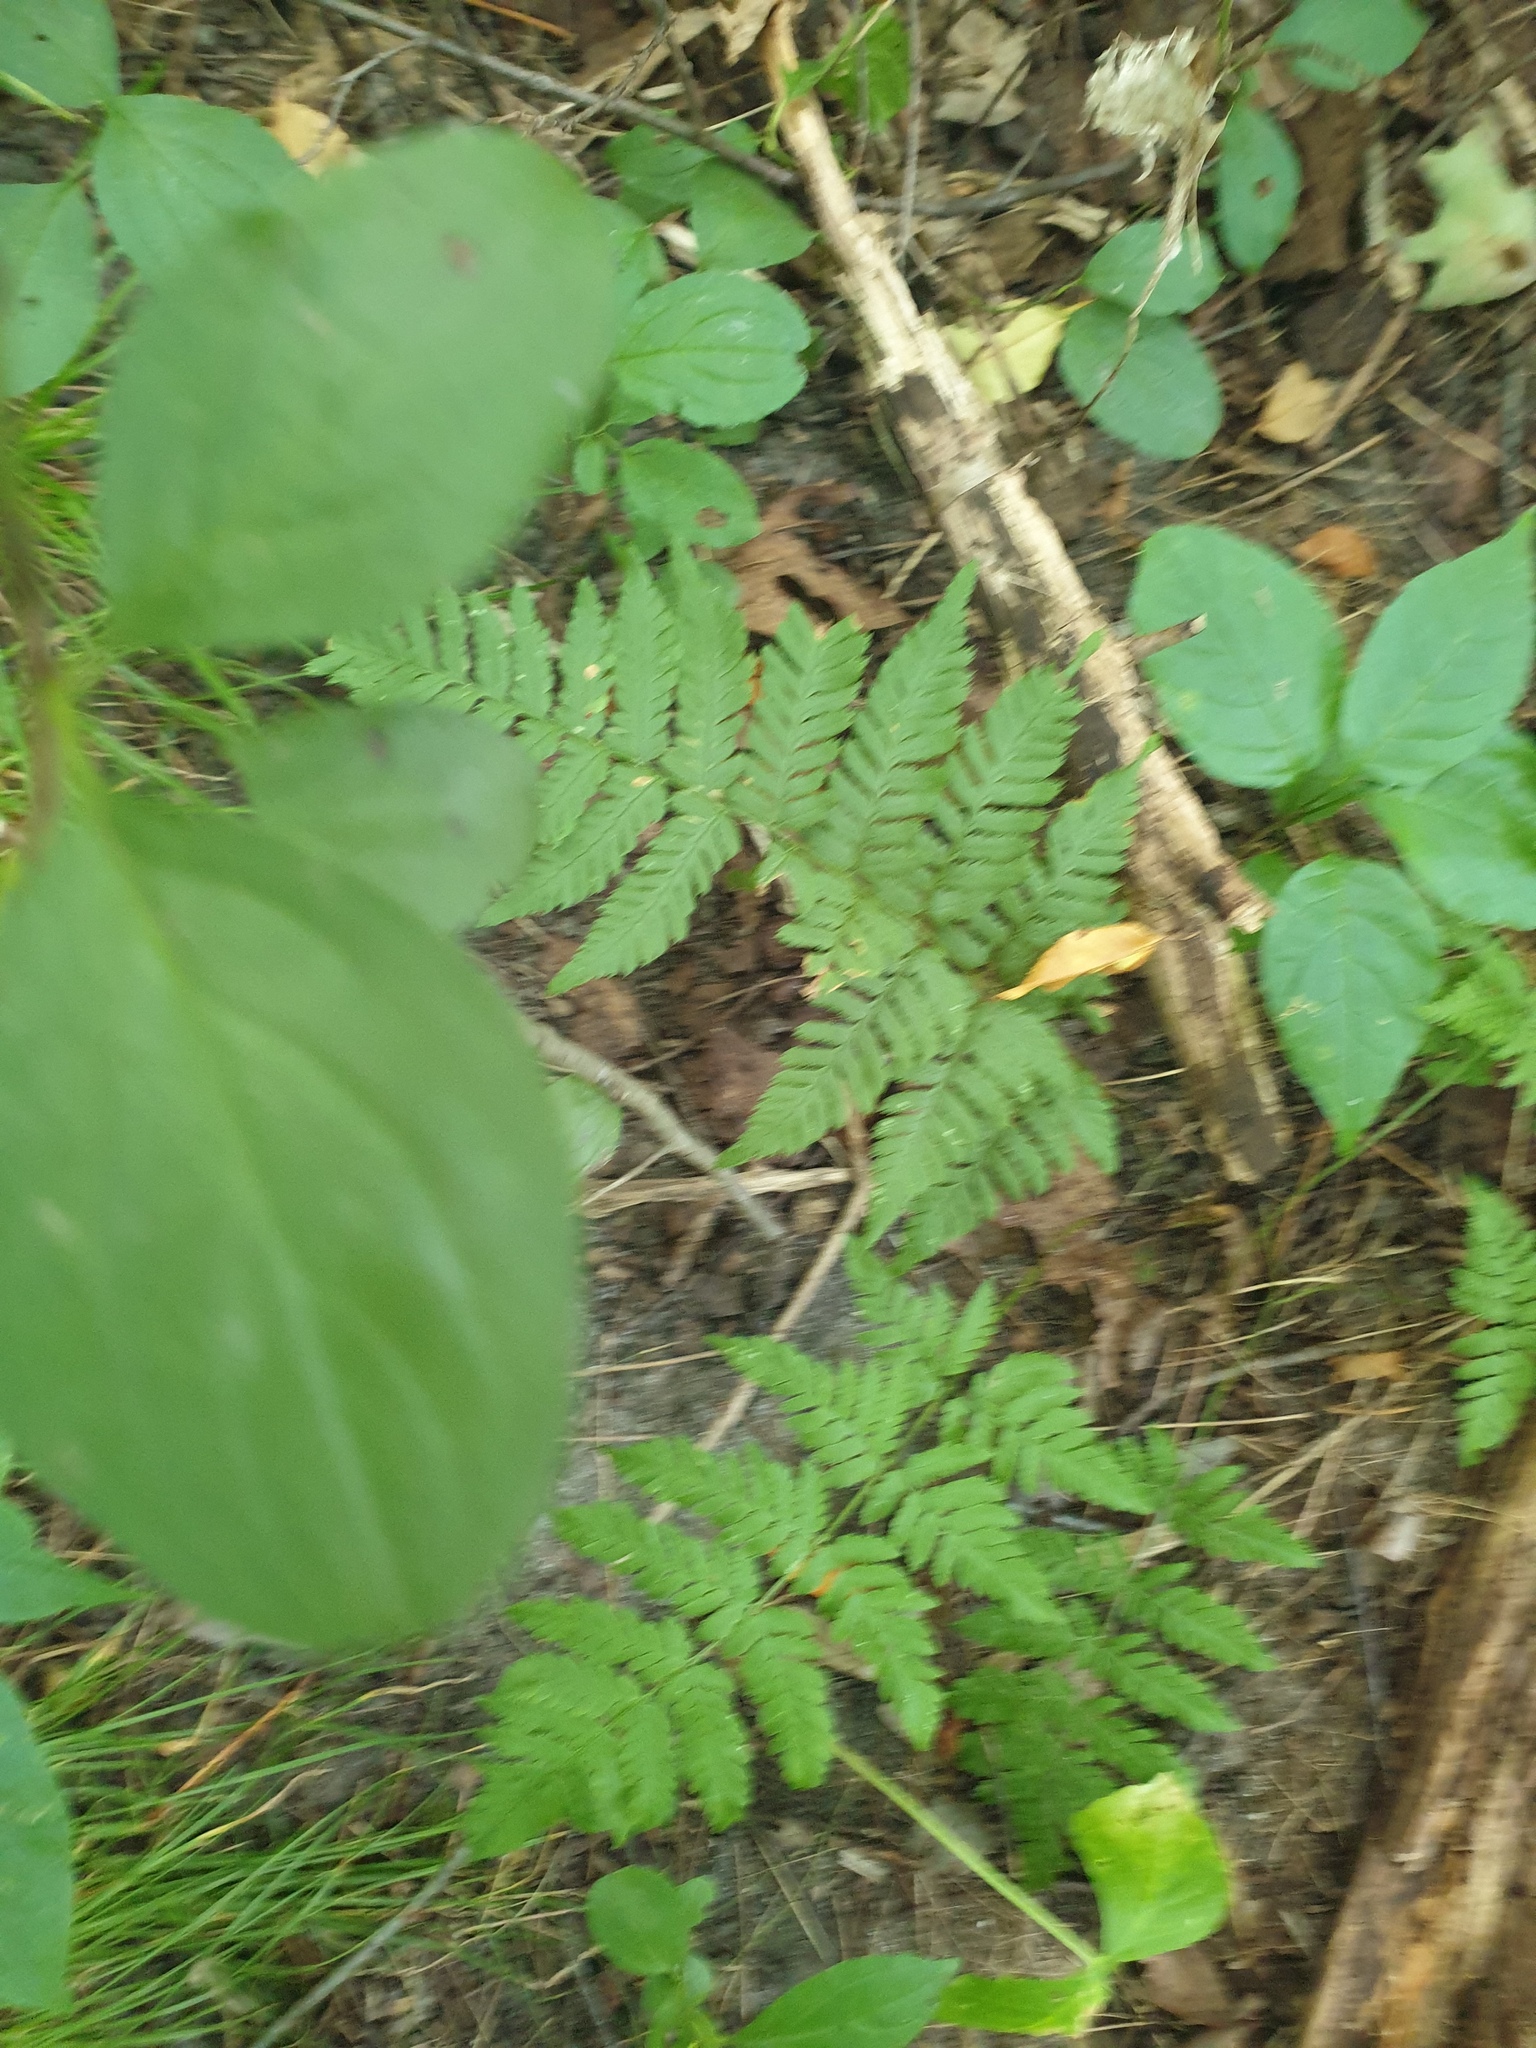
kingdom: Plantae
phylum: Tracheophyta
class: Polypodiopsida
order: Polypodiales
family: Dryopteridaceae
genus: Dryopteris
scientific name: Dryopteris carthusiana
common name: Narrow buckler-fern
